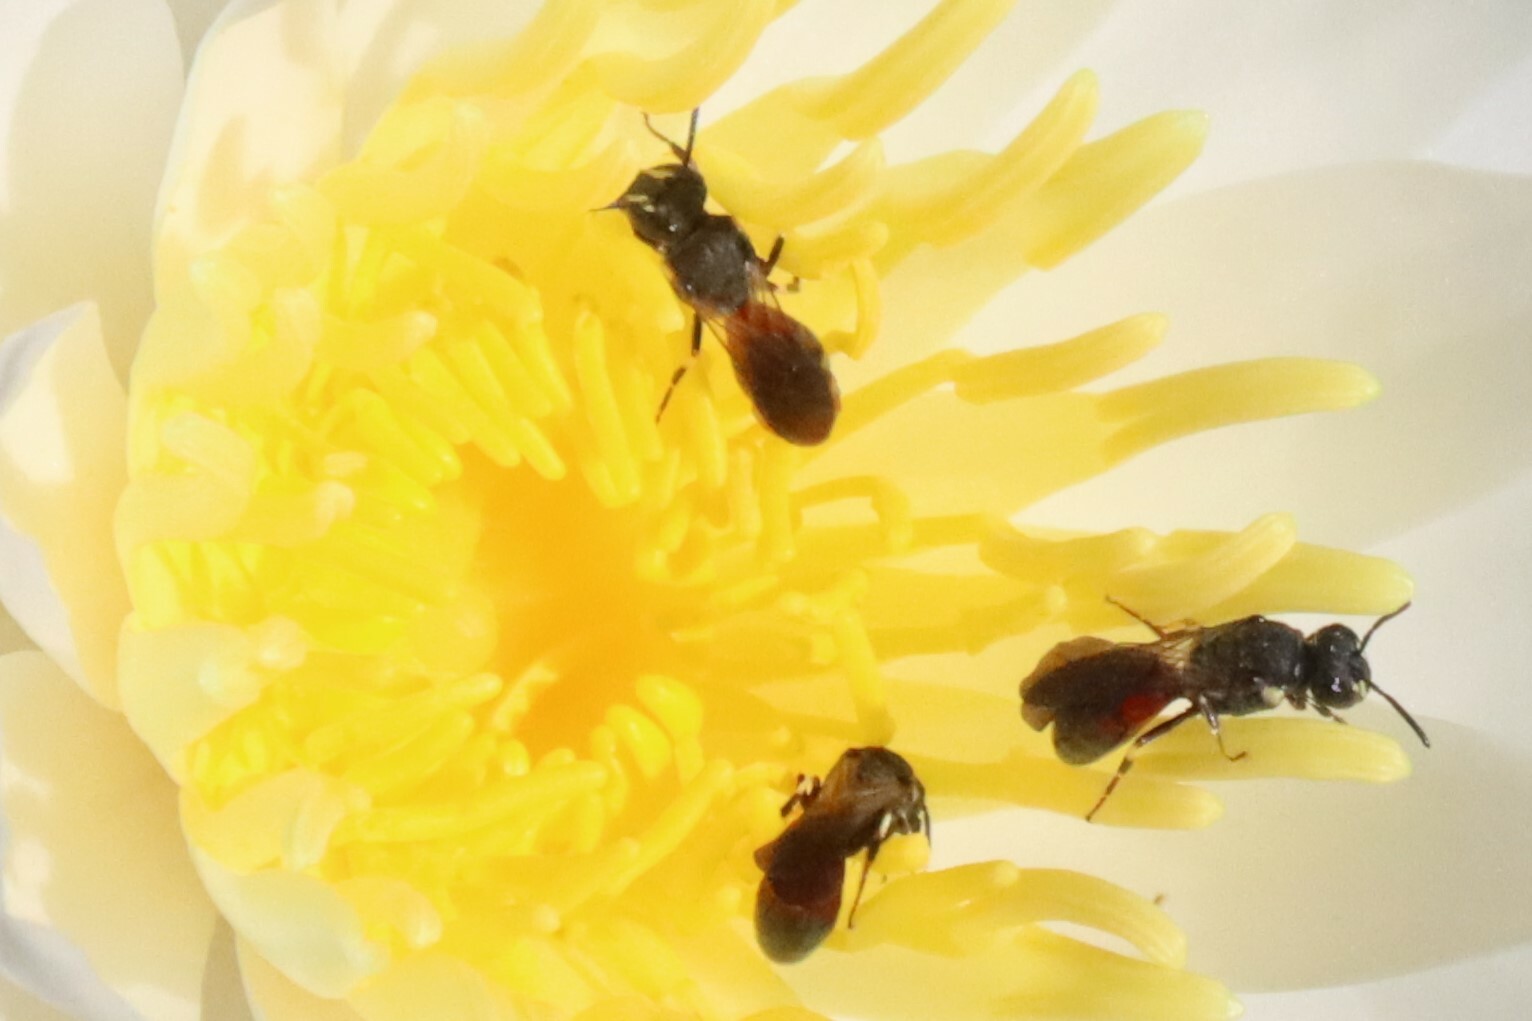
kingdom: Animalia
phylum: Arthropoda
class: Insecta
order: Hymenoptera
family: Colletidae
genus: Hylaeus
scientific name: Hylaeus nelumbonis
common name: Nelumbo masked bee
